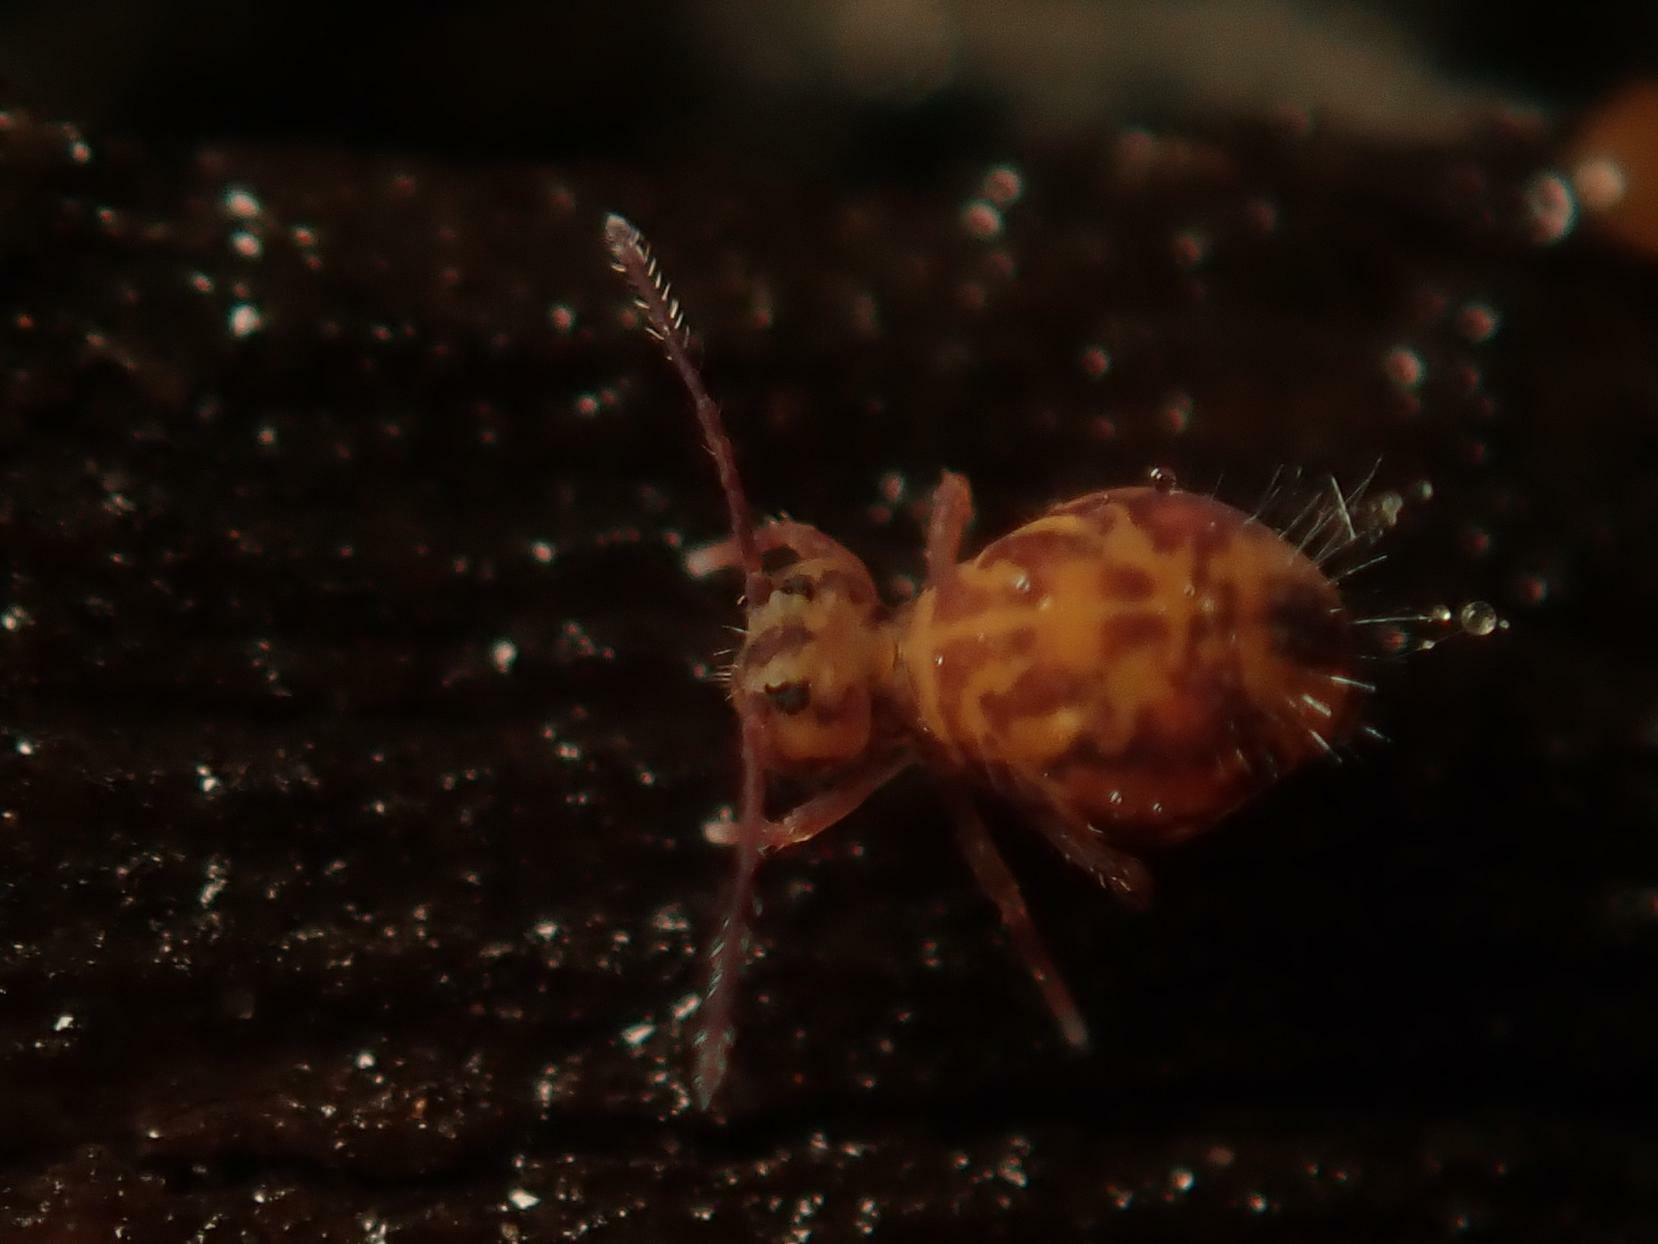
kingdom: Animalia
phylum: Arthropoda
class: Collembola
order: Symphypleona
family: Dicyrtomidae
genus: Dicyrtomina
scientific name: Dicyrtomina ornata
